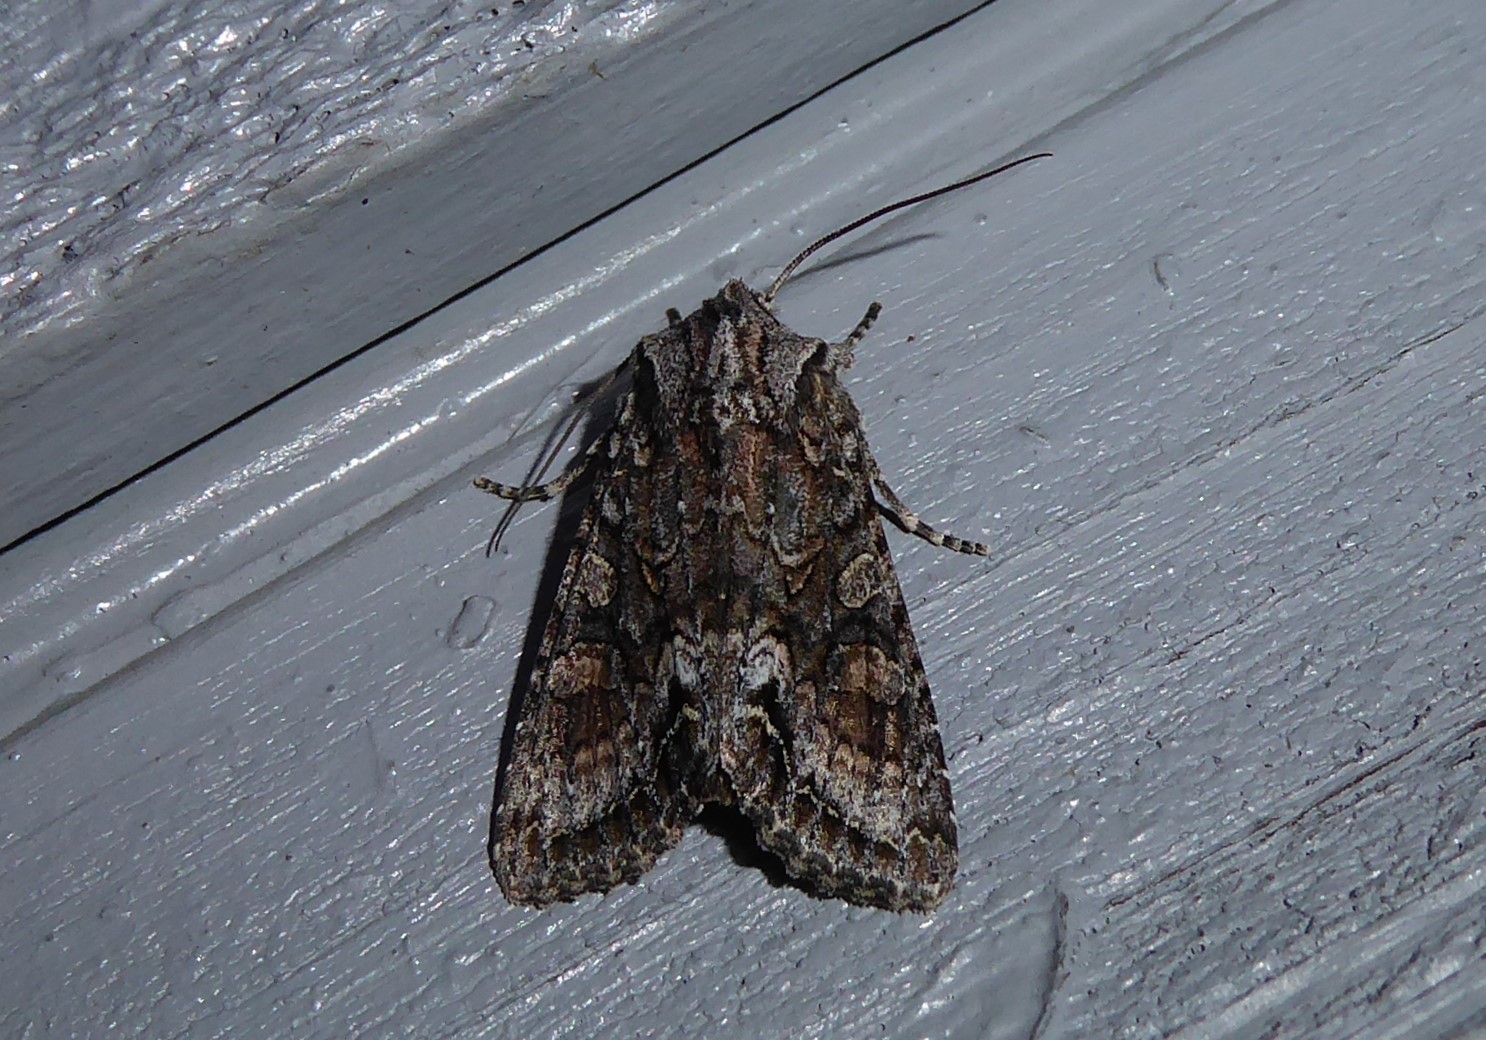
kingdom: Animalia
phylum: Arthropoda
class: Insecta
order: Lepidoptera
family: Noctuidae
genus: Ichneutica
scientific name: Ichneutica mutans
